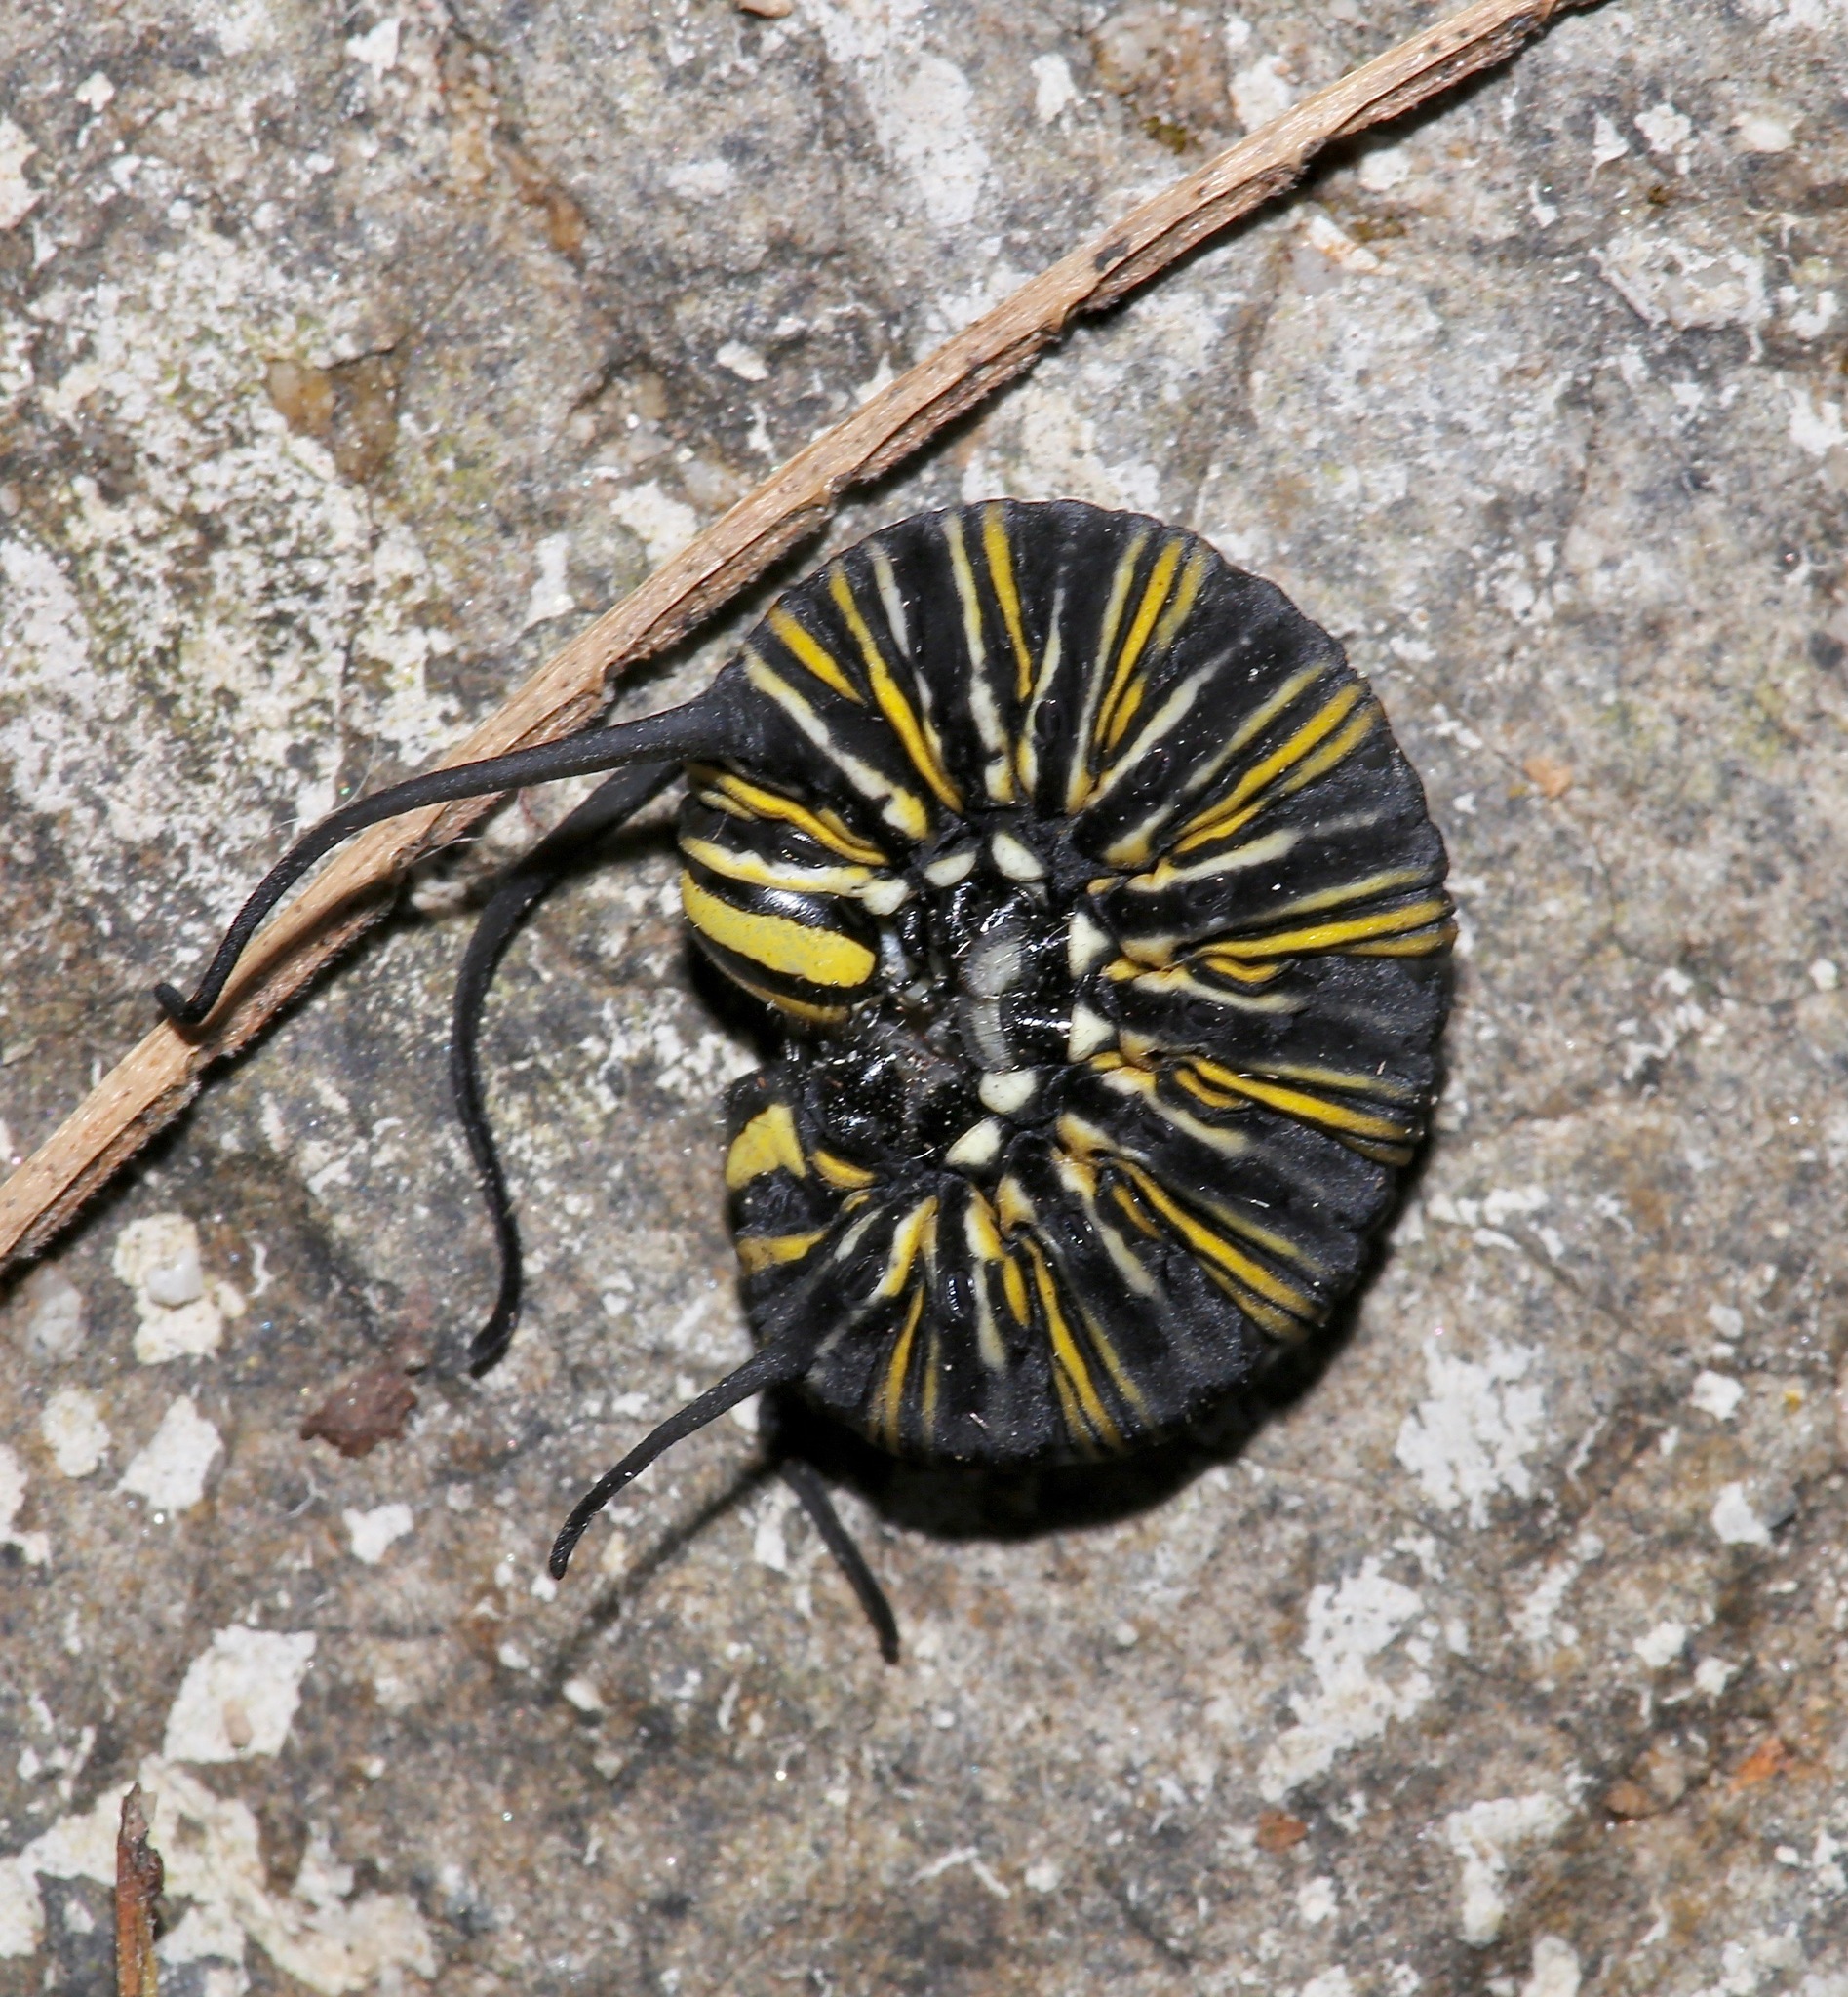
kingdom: Animalia
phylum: Arthropoda
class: Insecta
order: Lepidoptera
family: Nymphalidae
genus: Danaus
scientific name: Danaus plexippus
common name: Monarch
